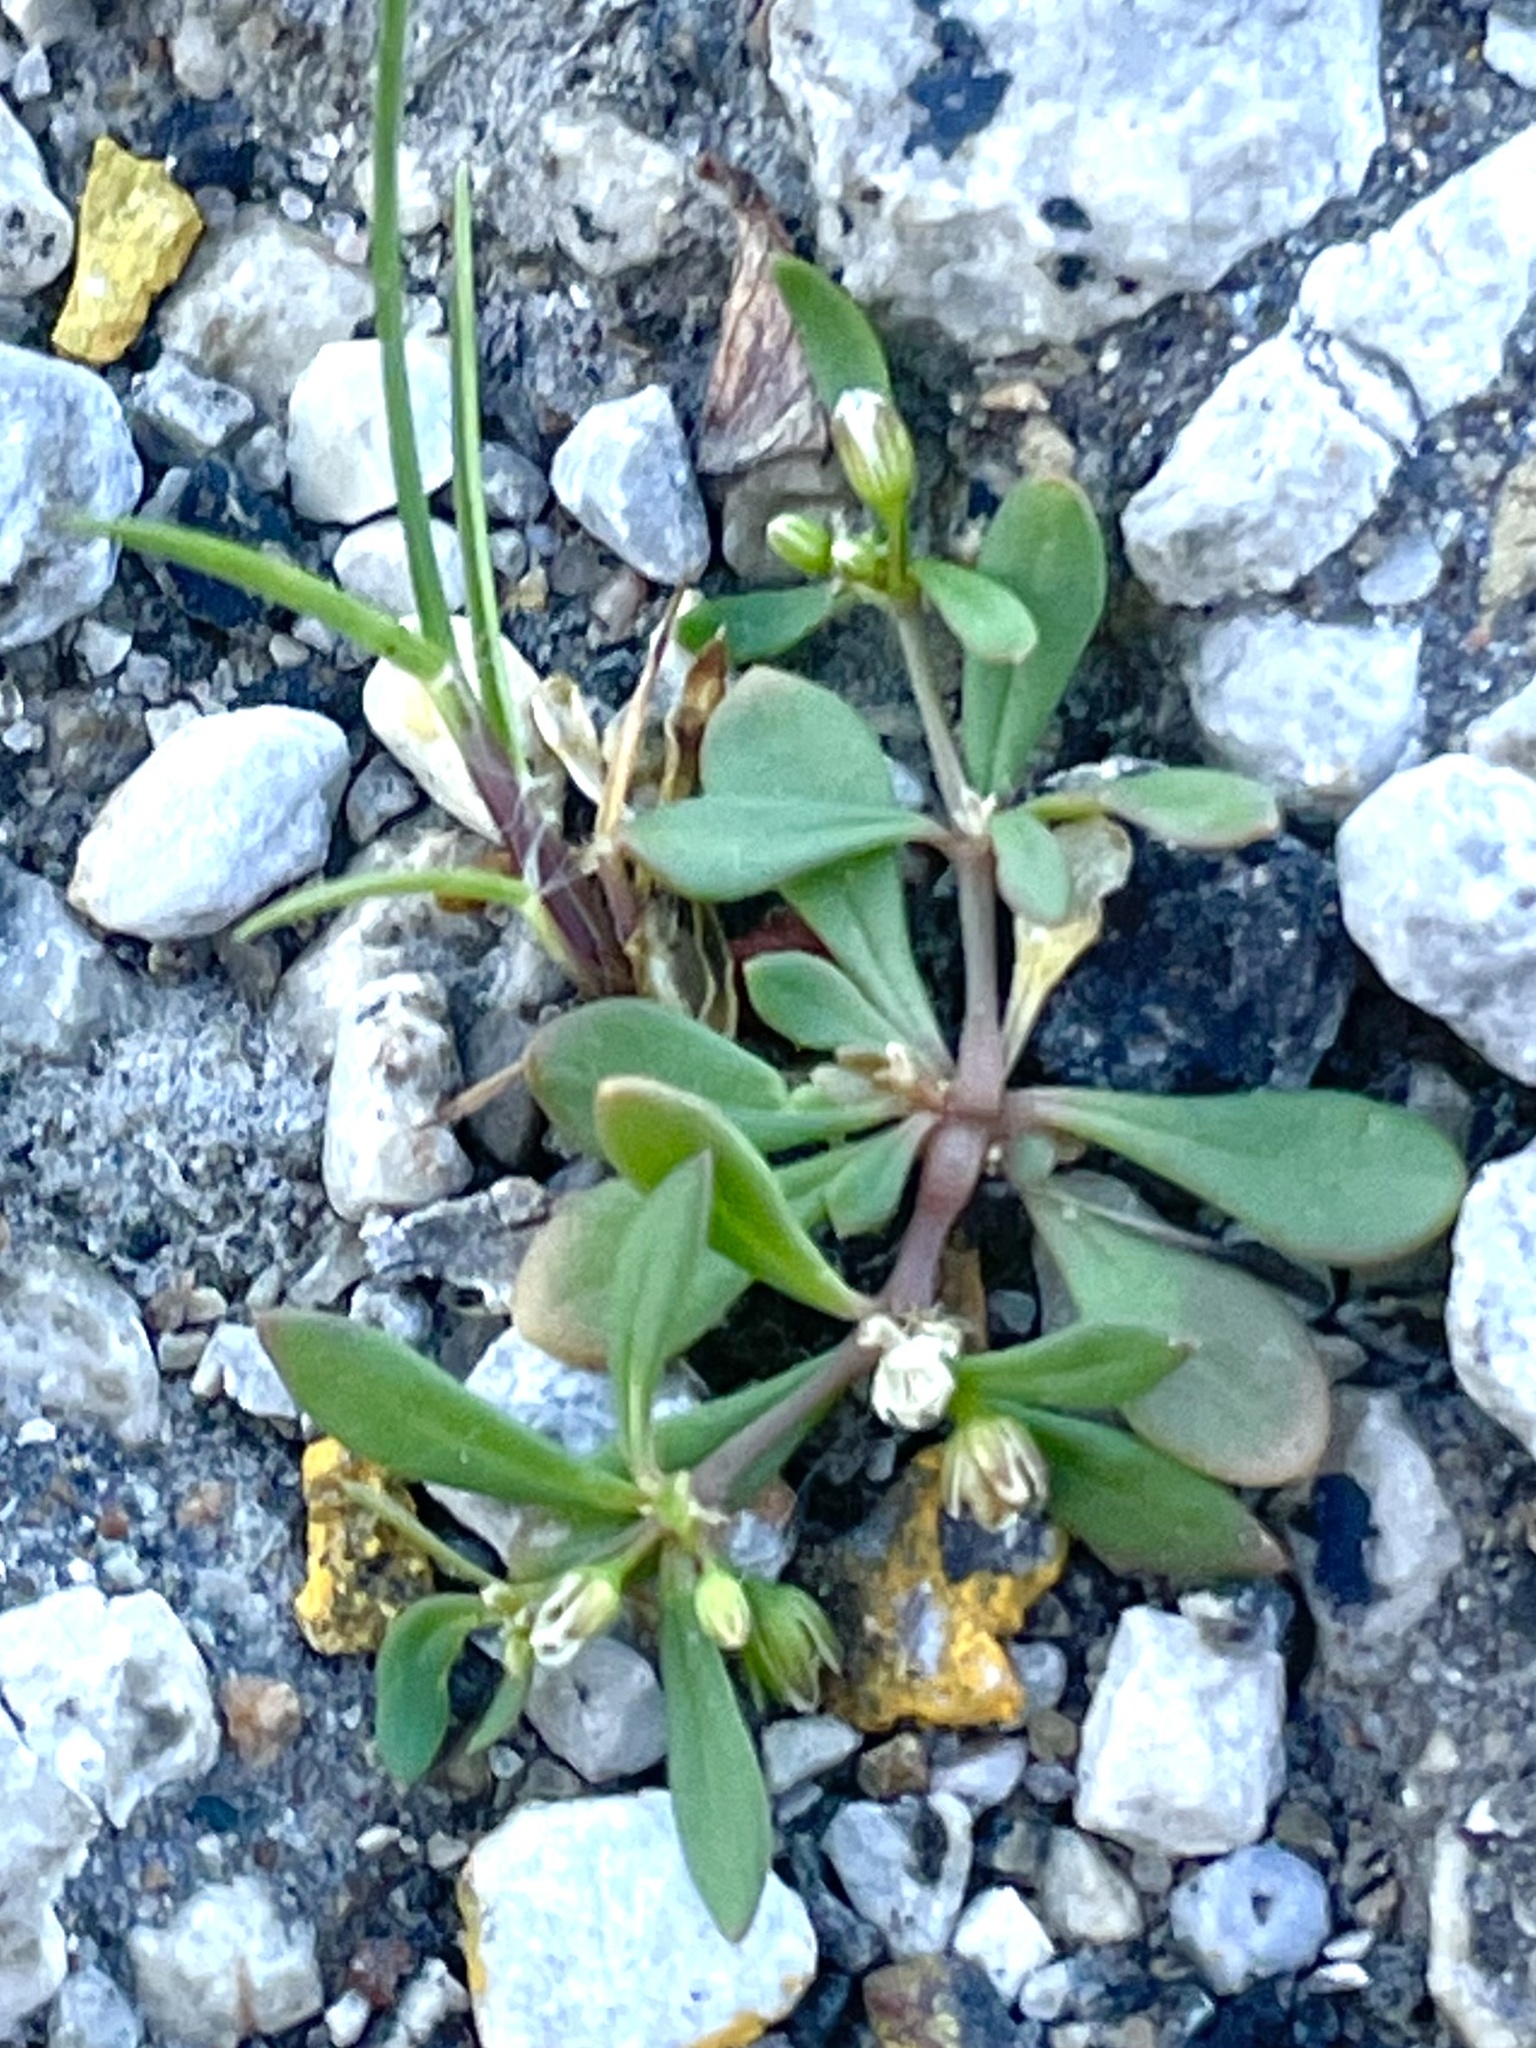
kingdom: Plantae
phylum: Tracheophyta
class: Magnoliopsida
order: Caryophyllales
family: Molluginaceae
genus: Mollugo
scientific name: Mollugo verticillata
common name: Green carpetweed
